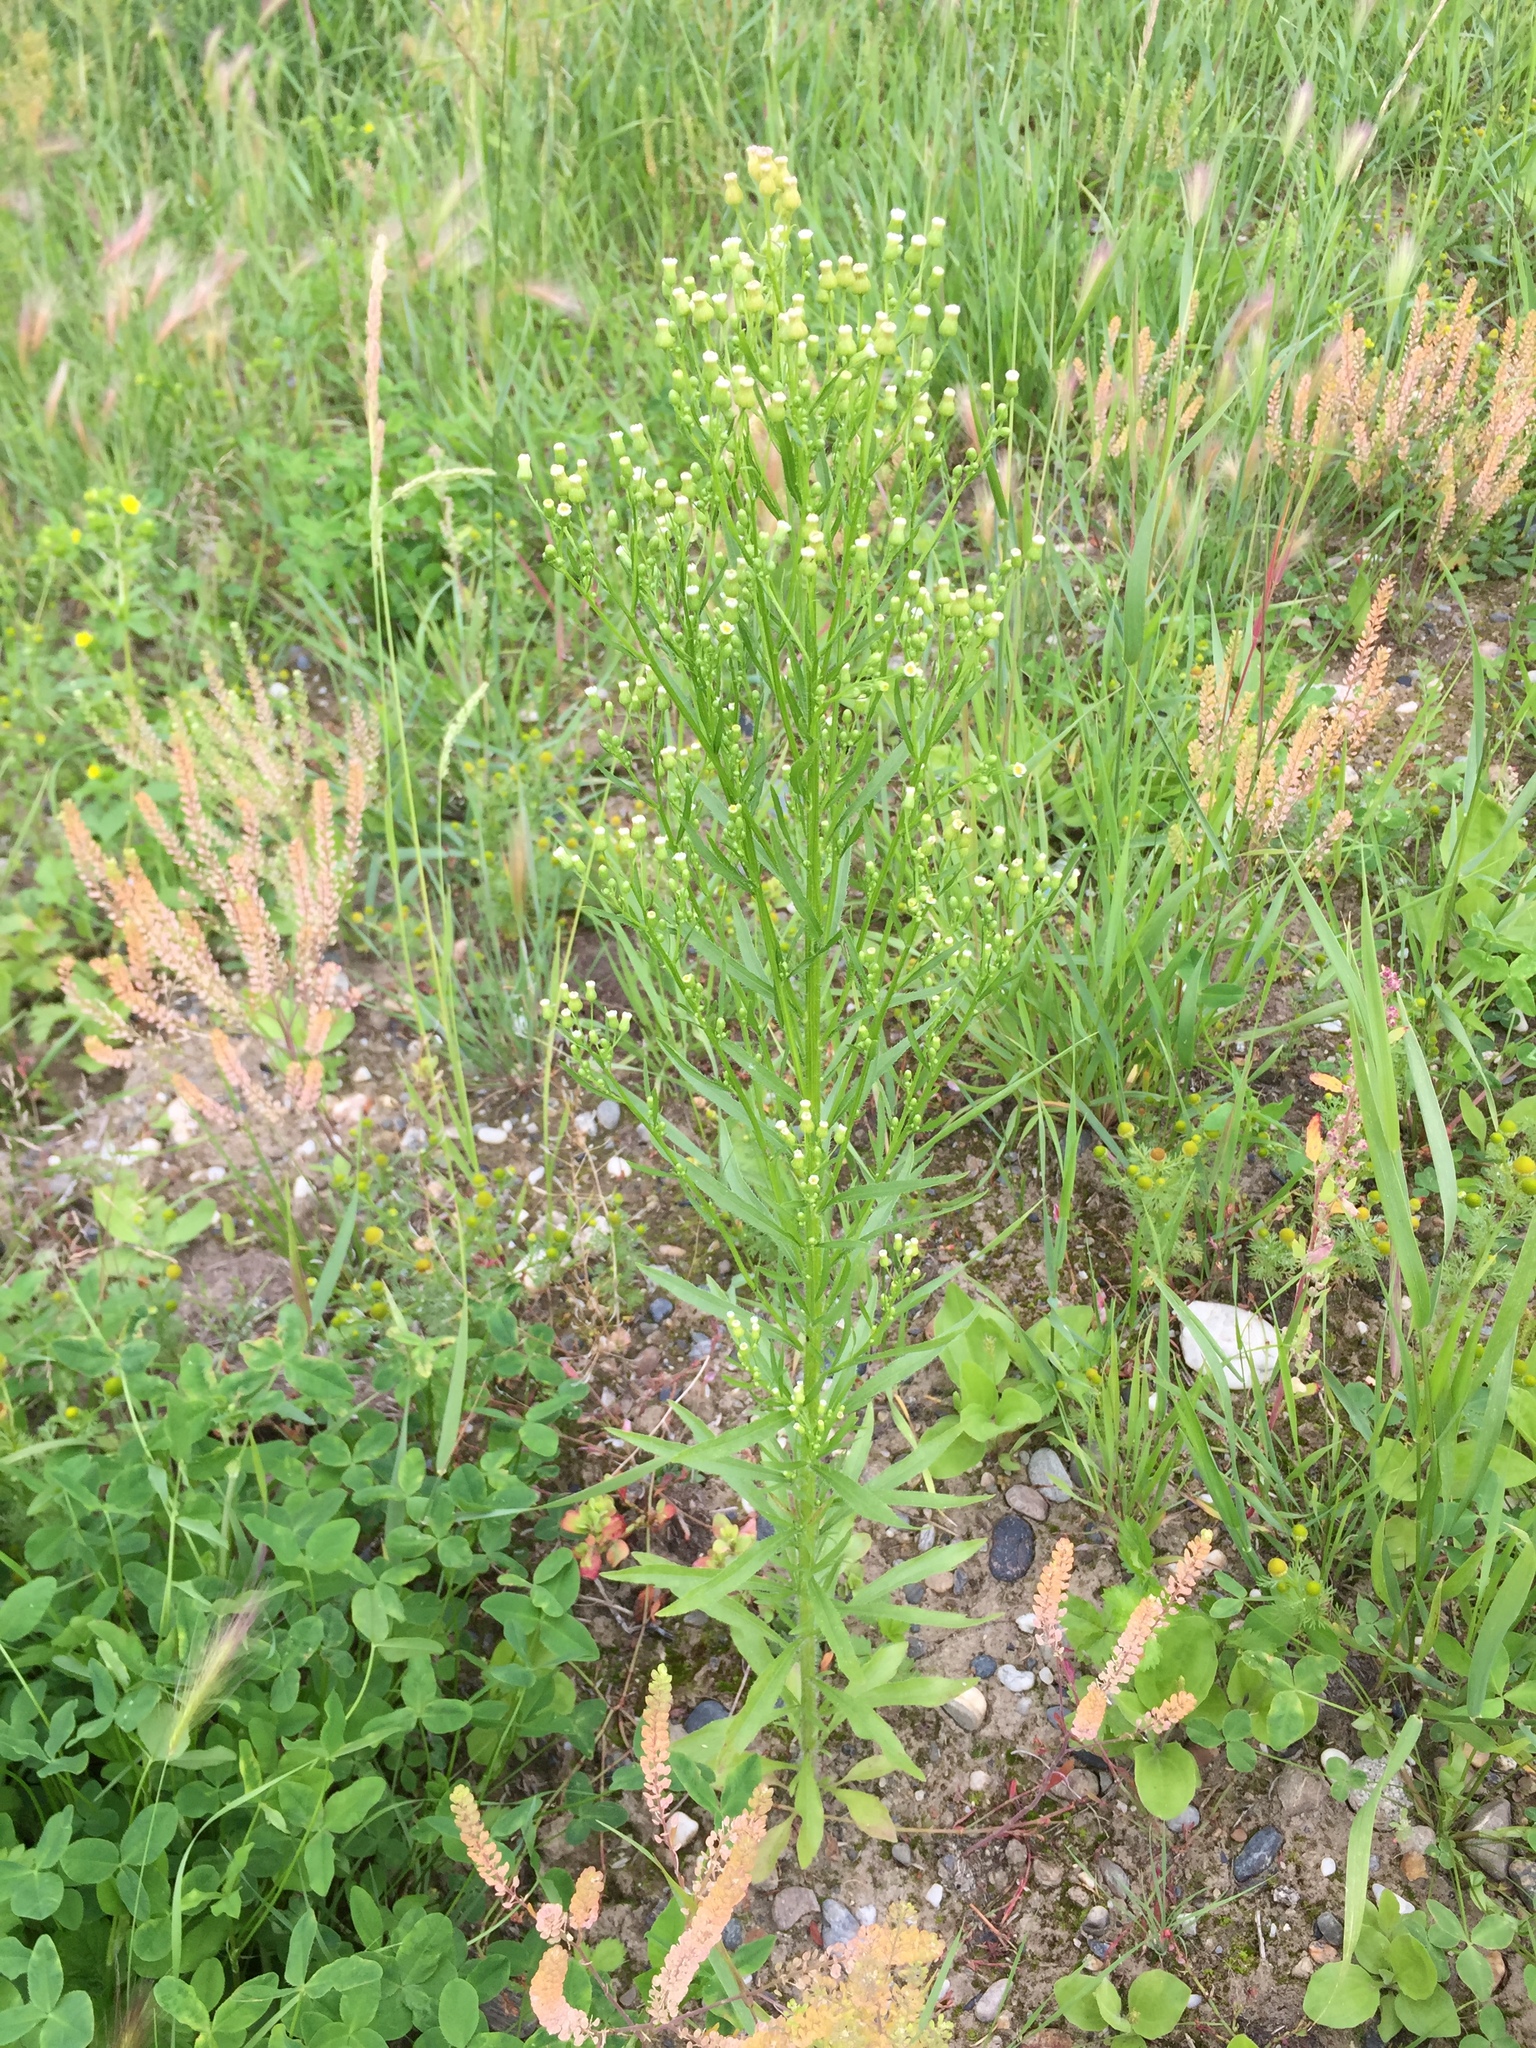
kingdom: Plantae
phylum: Tracheophyta
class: Magnoliopsida
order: Asterales
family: Asteraceae
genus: Erigeron
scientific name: Erigeron canadensis
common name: Canadian fleabane
